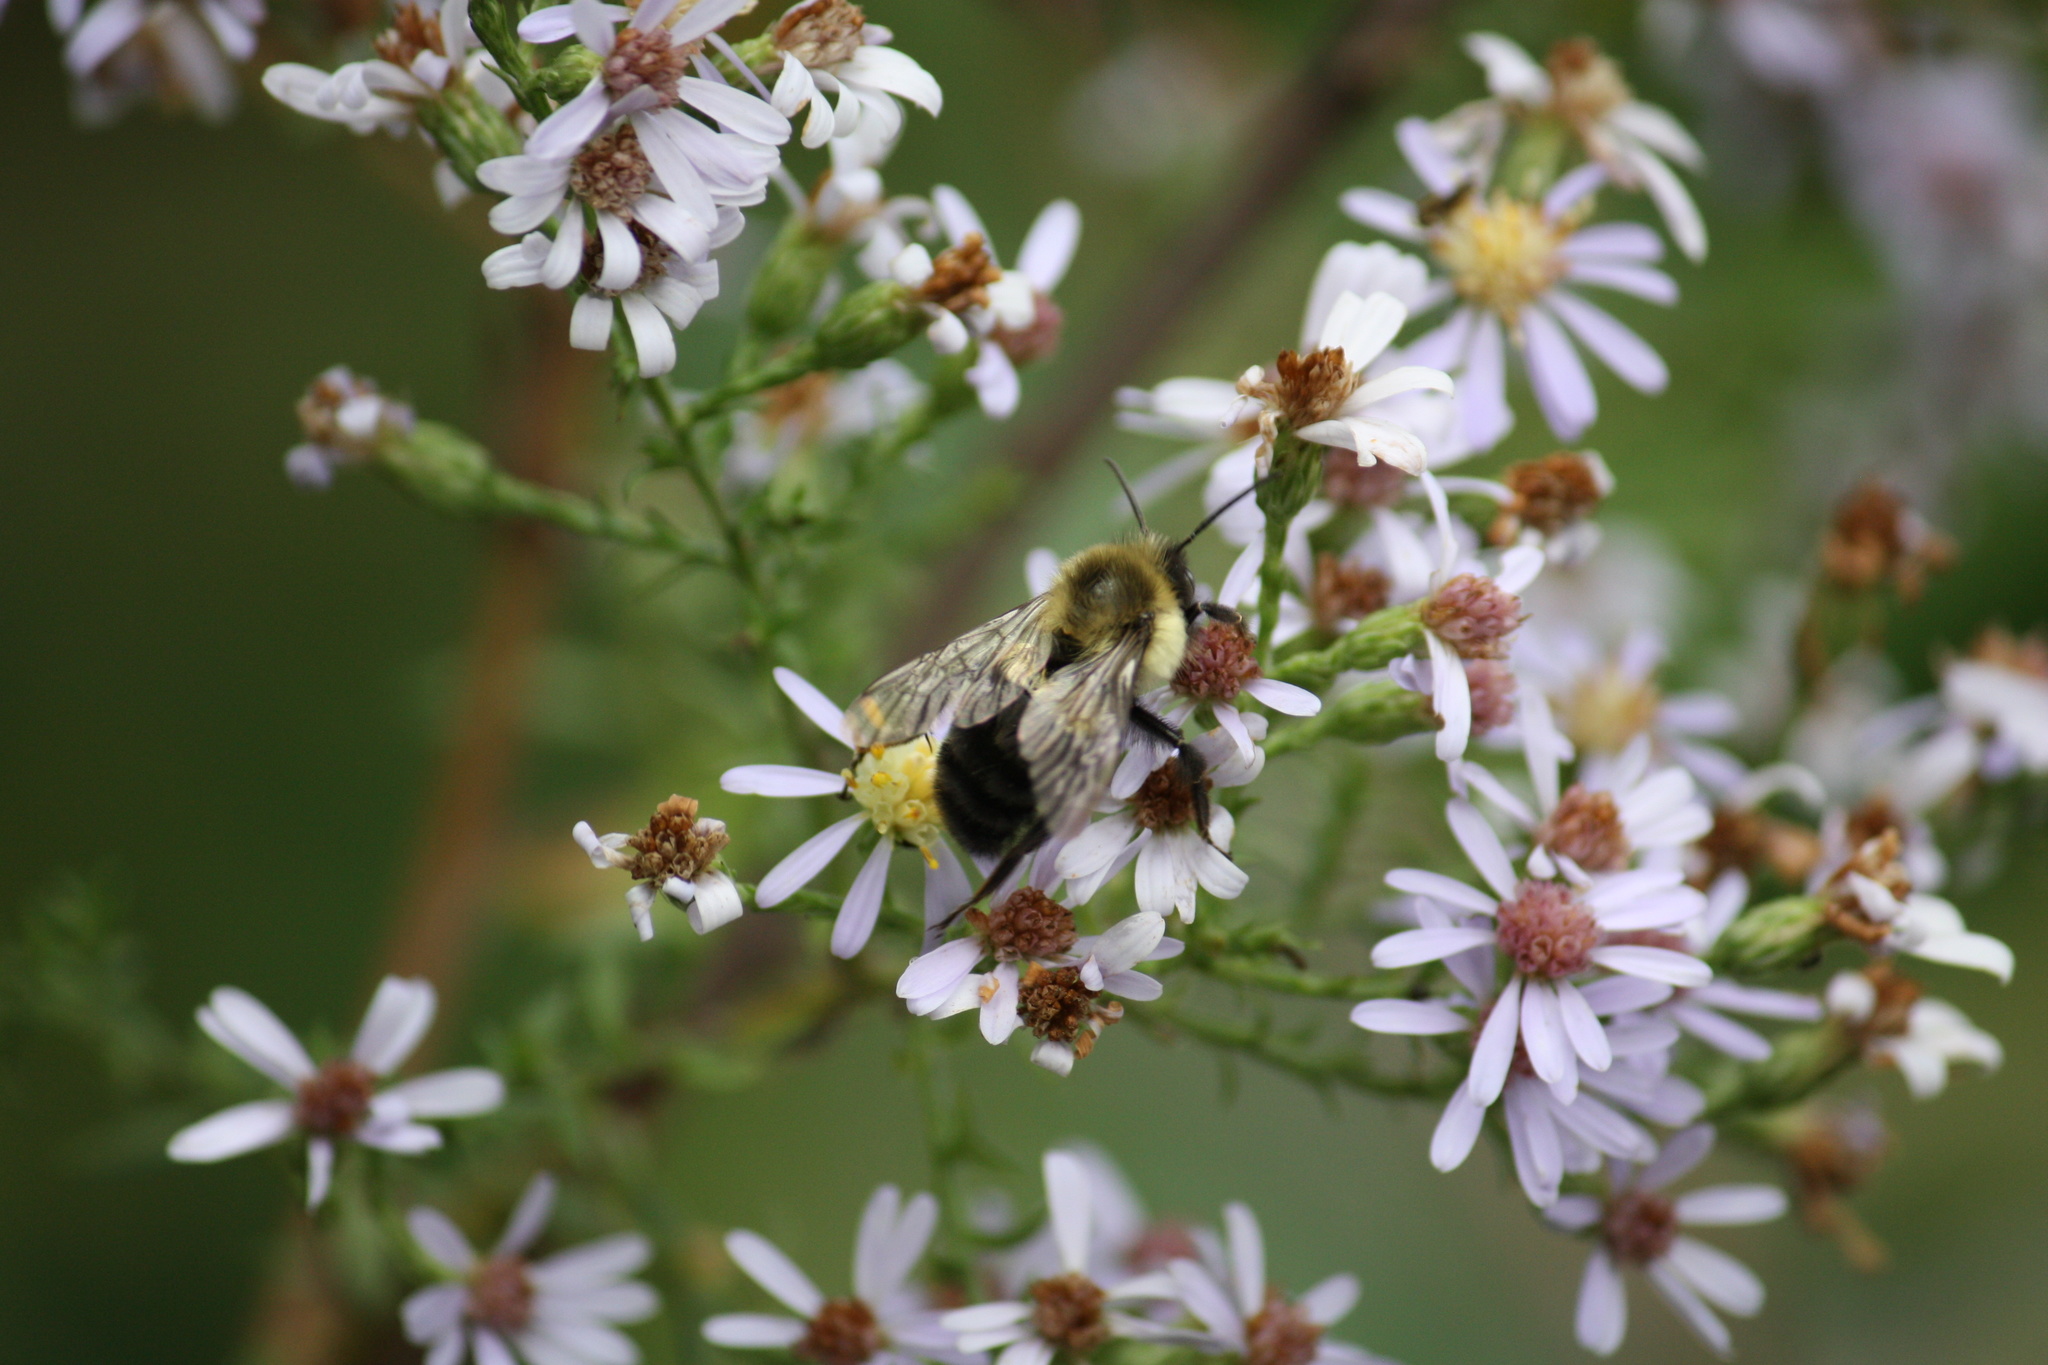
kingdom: Animalia
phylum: Arthropoda
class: Insecta
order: Hymenoptera
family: Apidae
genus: Bombus
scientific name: Bombus impatiens
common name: Common eastern bumble bee
